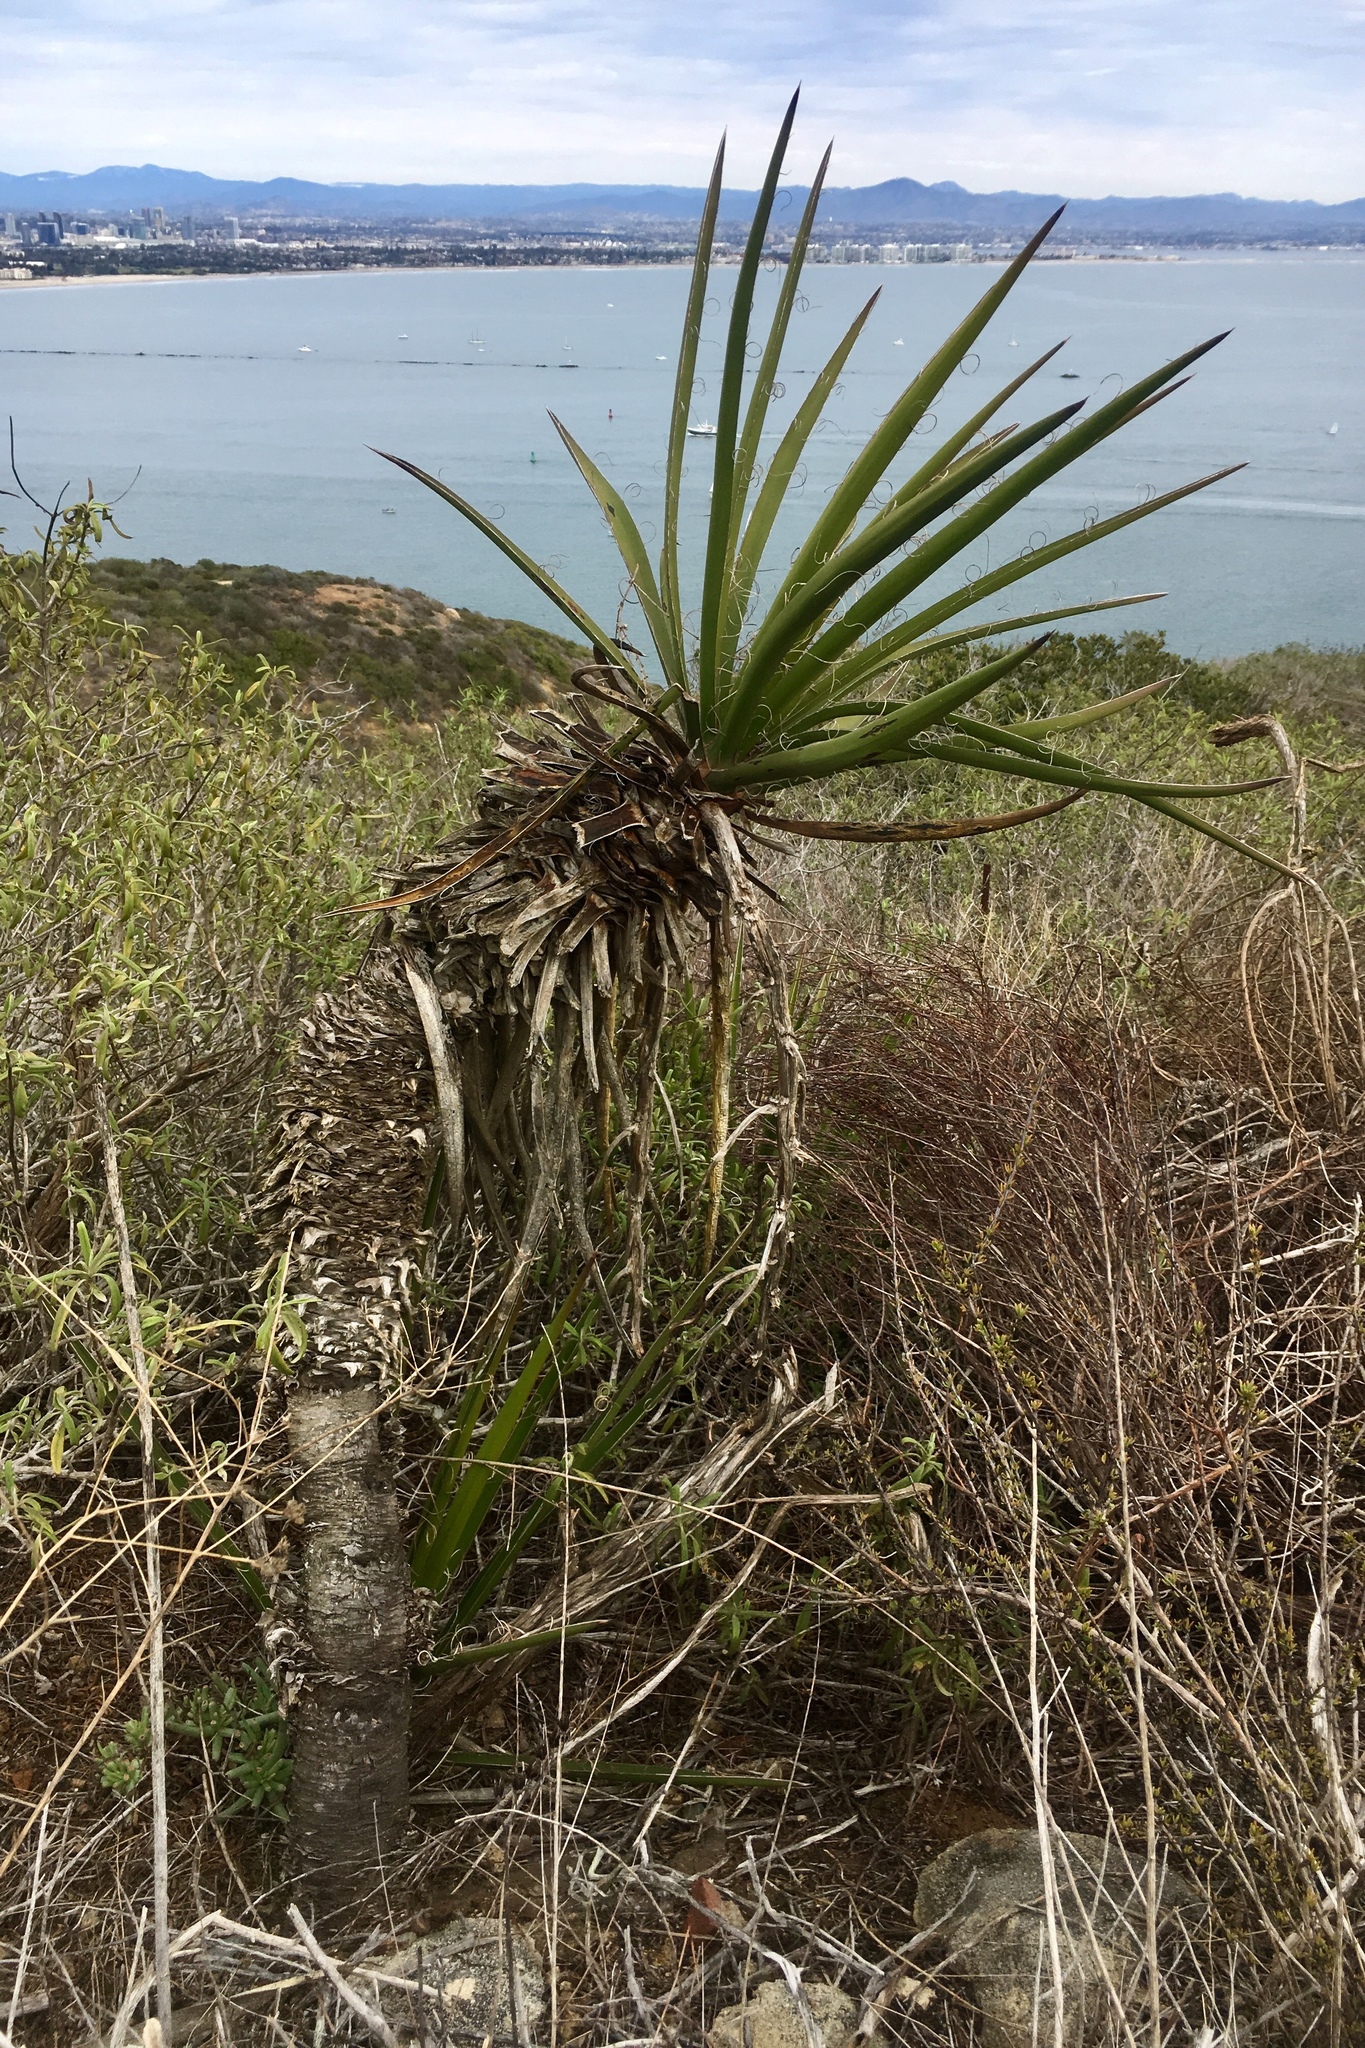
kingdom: Plantae
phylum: Tracheophyta
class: Liliopsida
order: Asparagales
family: Asparagaceae
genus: Yucca
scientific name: Yucca schidigera
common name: Mojave yucca
